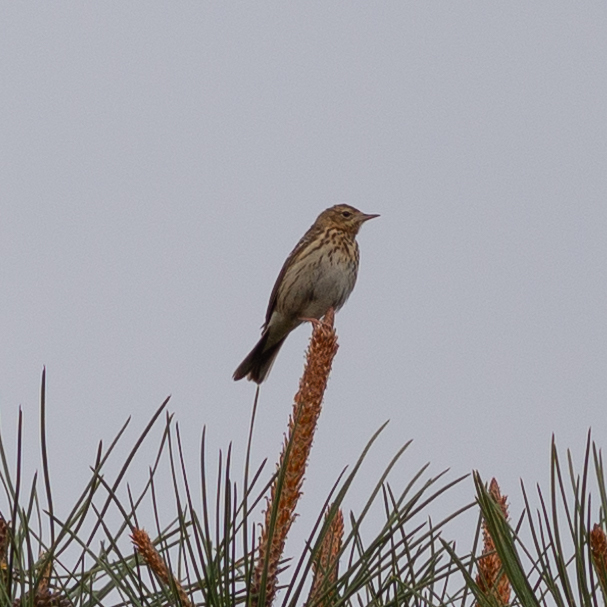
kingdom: Animalia
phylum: Chordata
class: Aves
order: Passeriformes
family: Motacillidae
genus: Anthus
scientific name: Anthus trivialis
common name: Tree pipit
